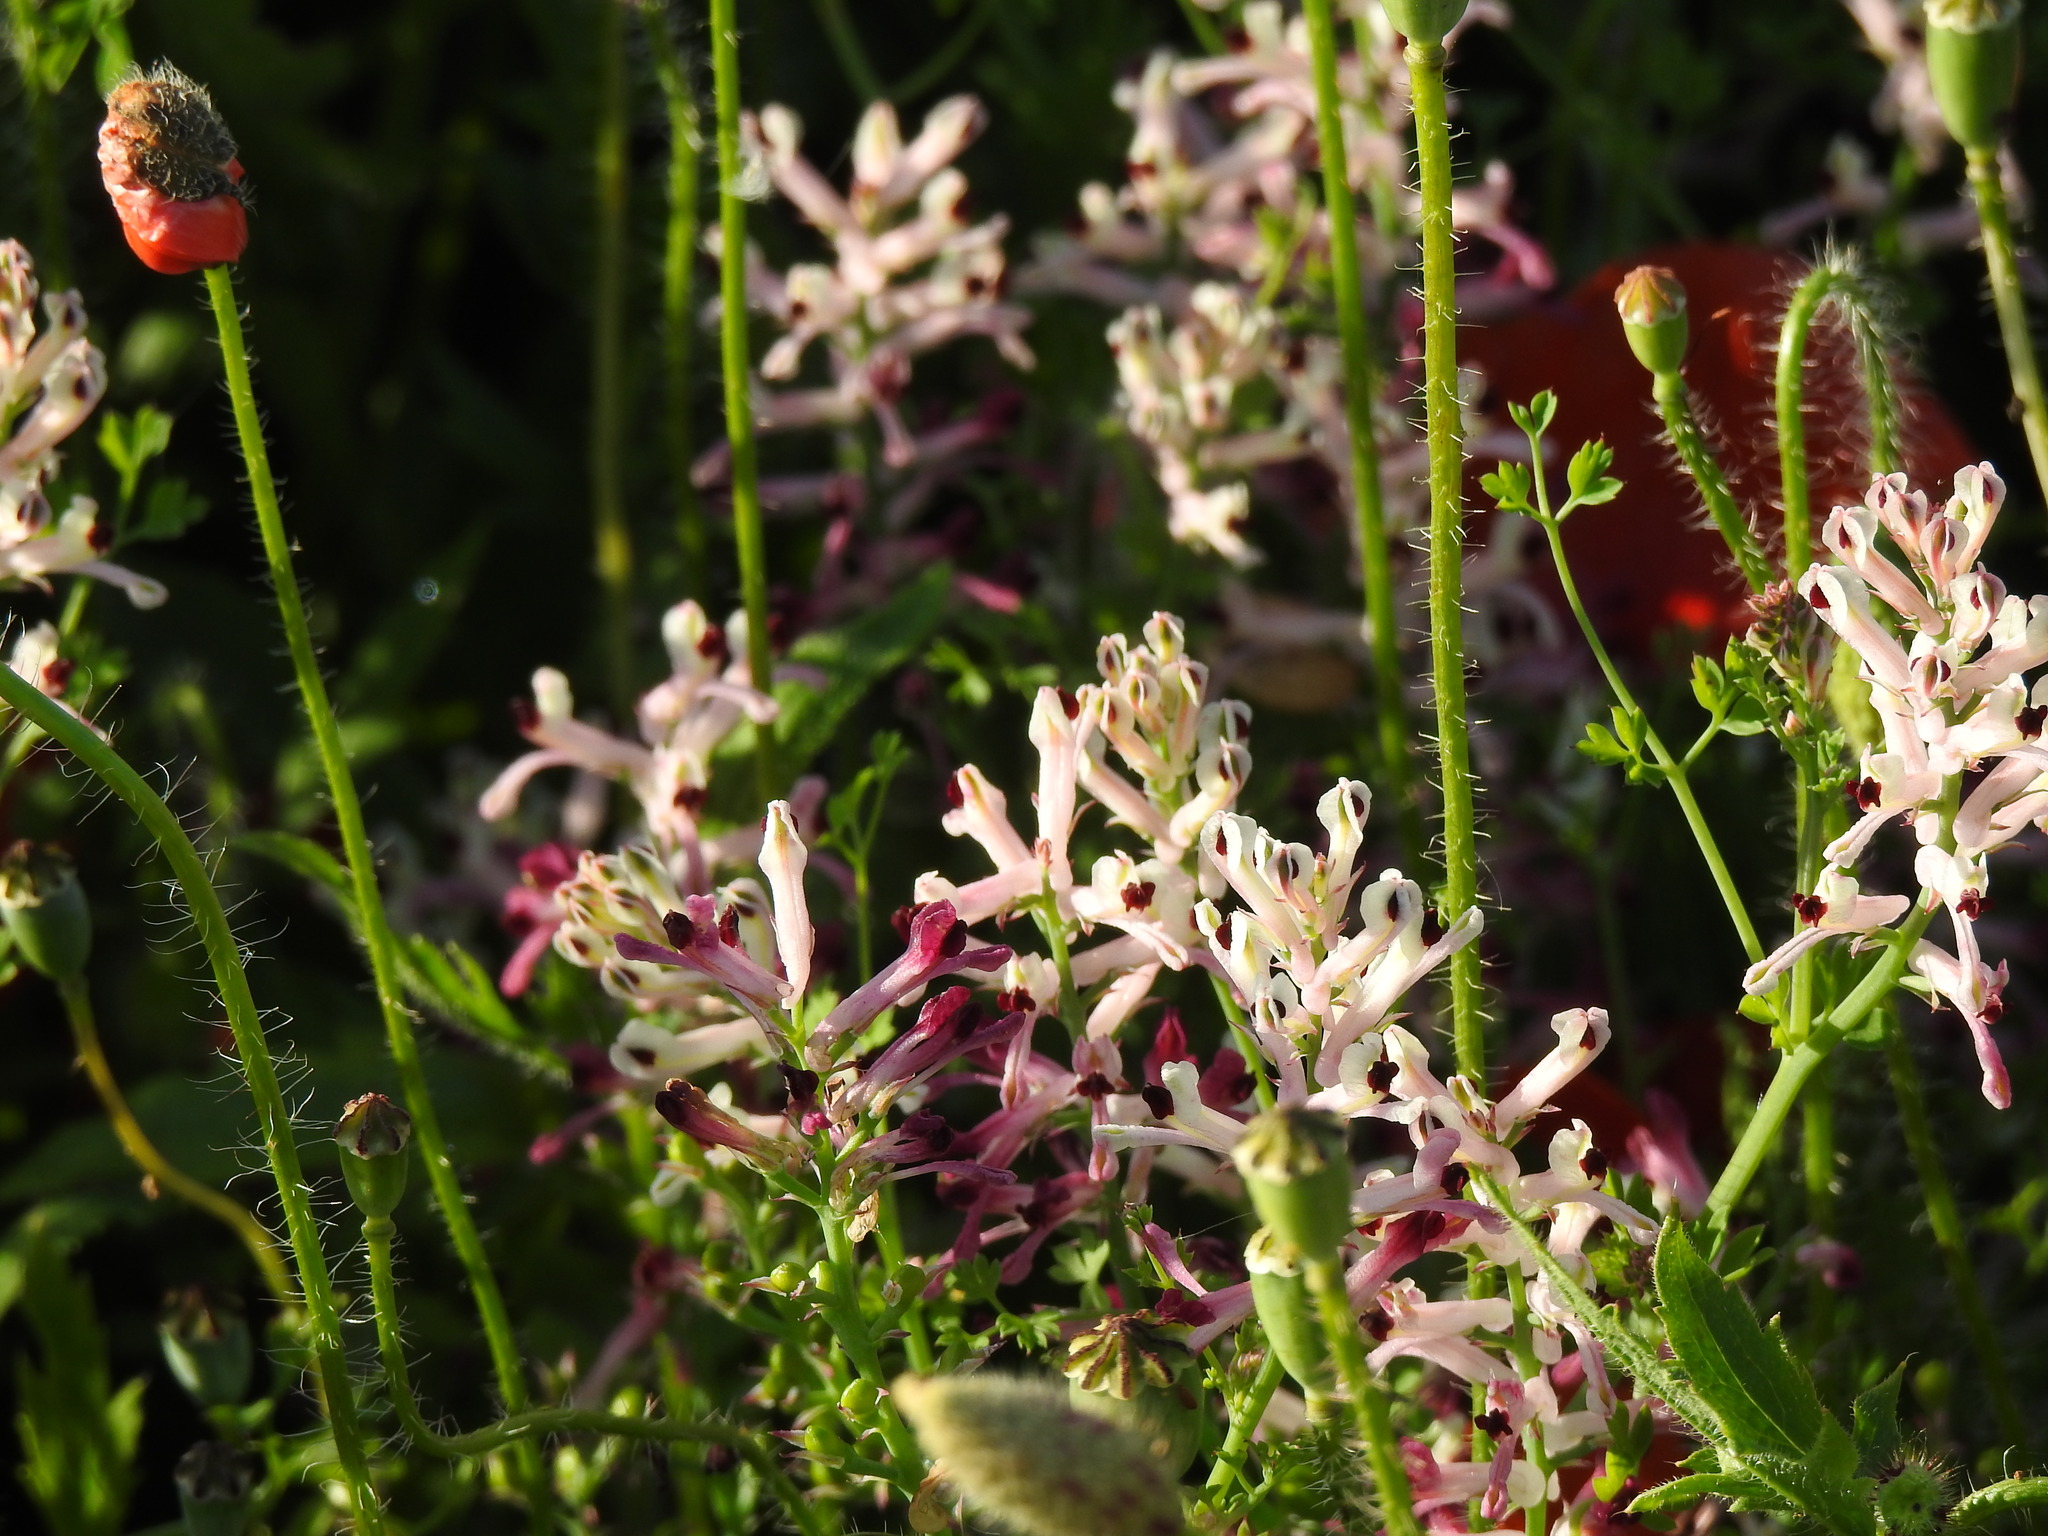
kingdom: Plantae
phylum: Tracheophyta
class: Magnoliopsida
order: Ranunculales
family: Papaveraceae
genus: Fumaria
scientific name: Fumaria agraria
